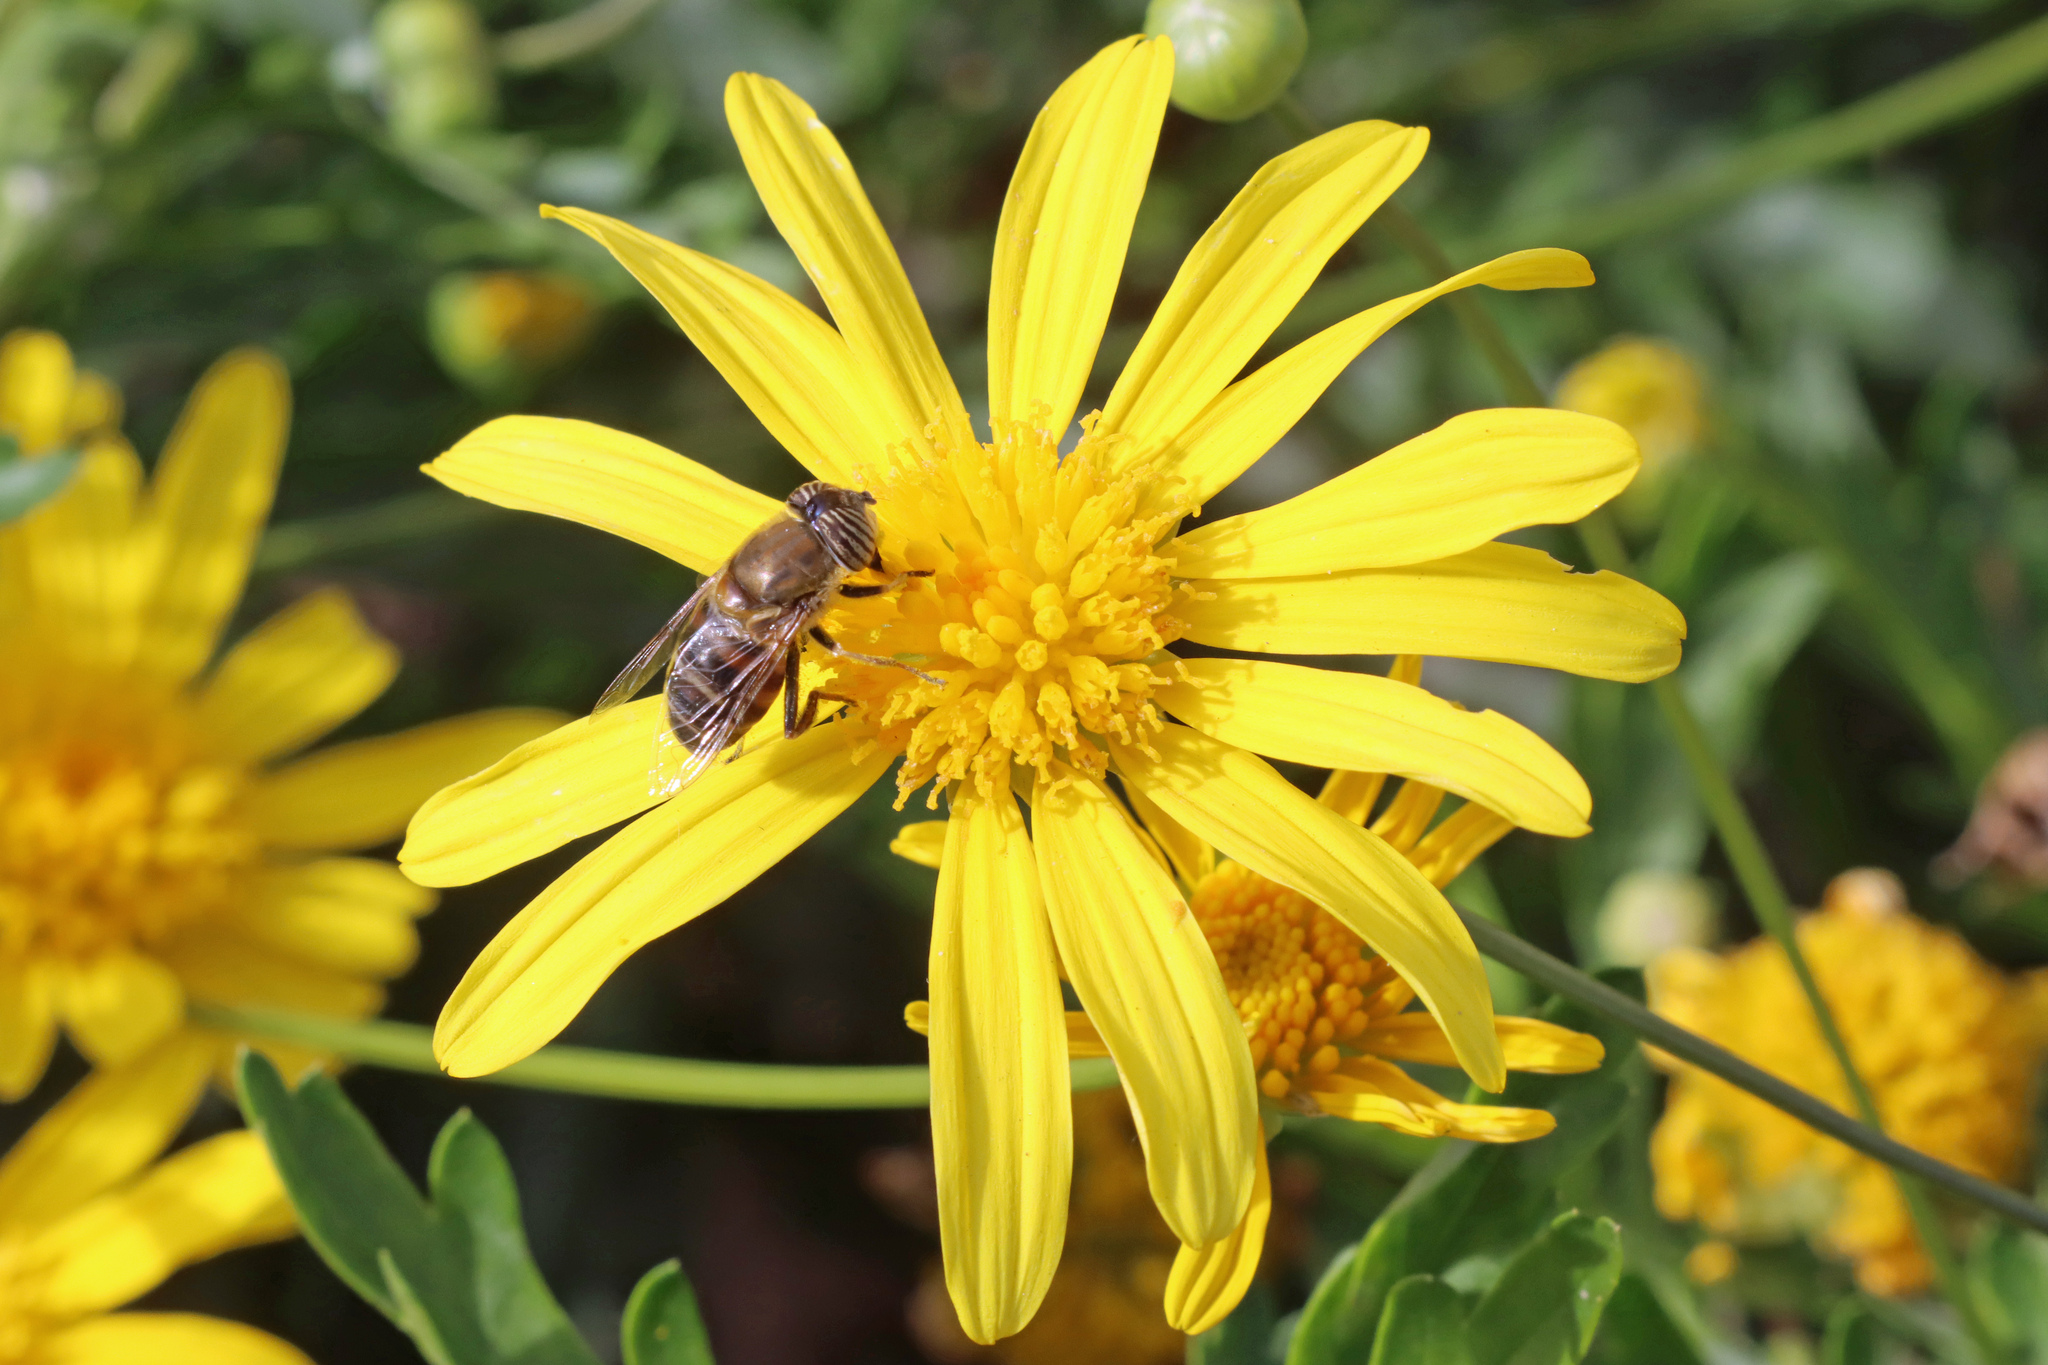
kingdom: Animalia
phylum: Arthropoda
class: Insecta
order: Diptera
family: Syrphidae
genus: Eristalinus
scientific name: Eristalinus taeniops
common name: Syrphid fly
